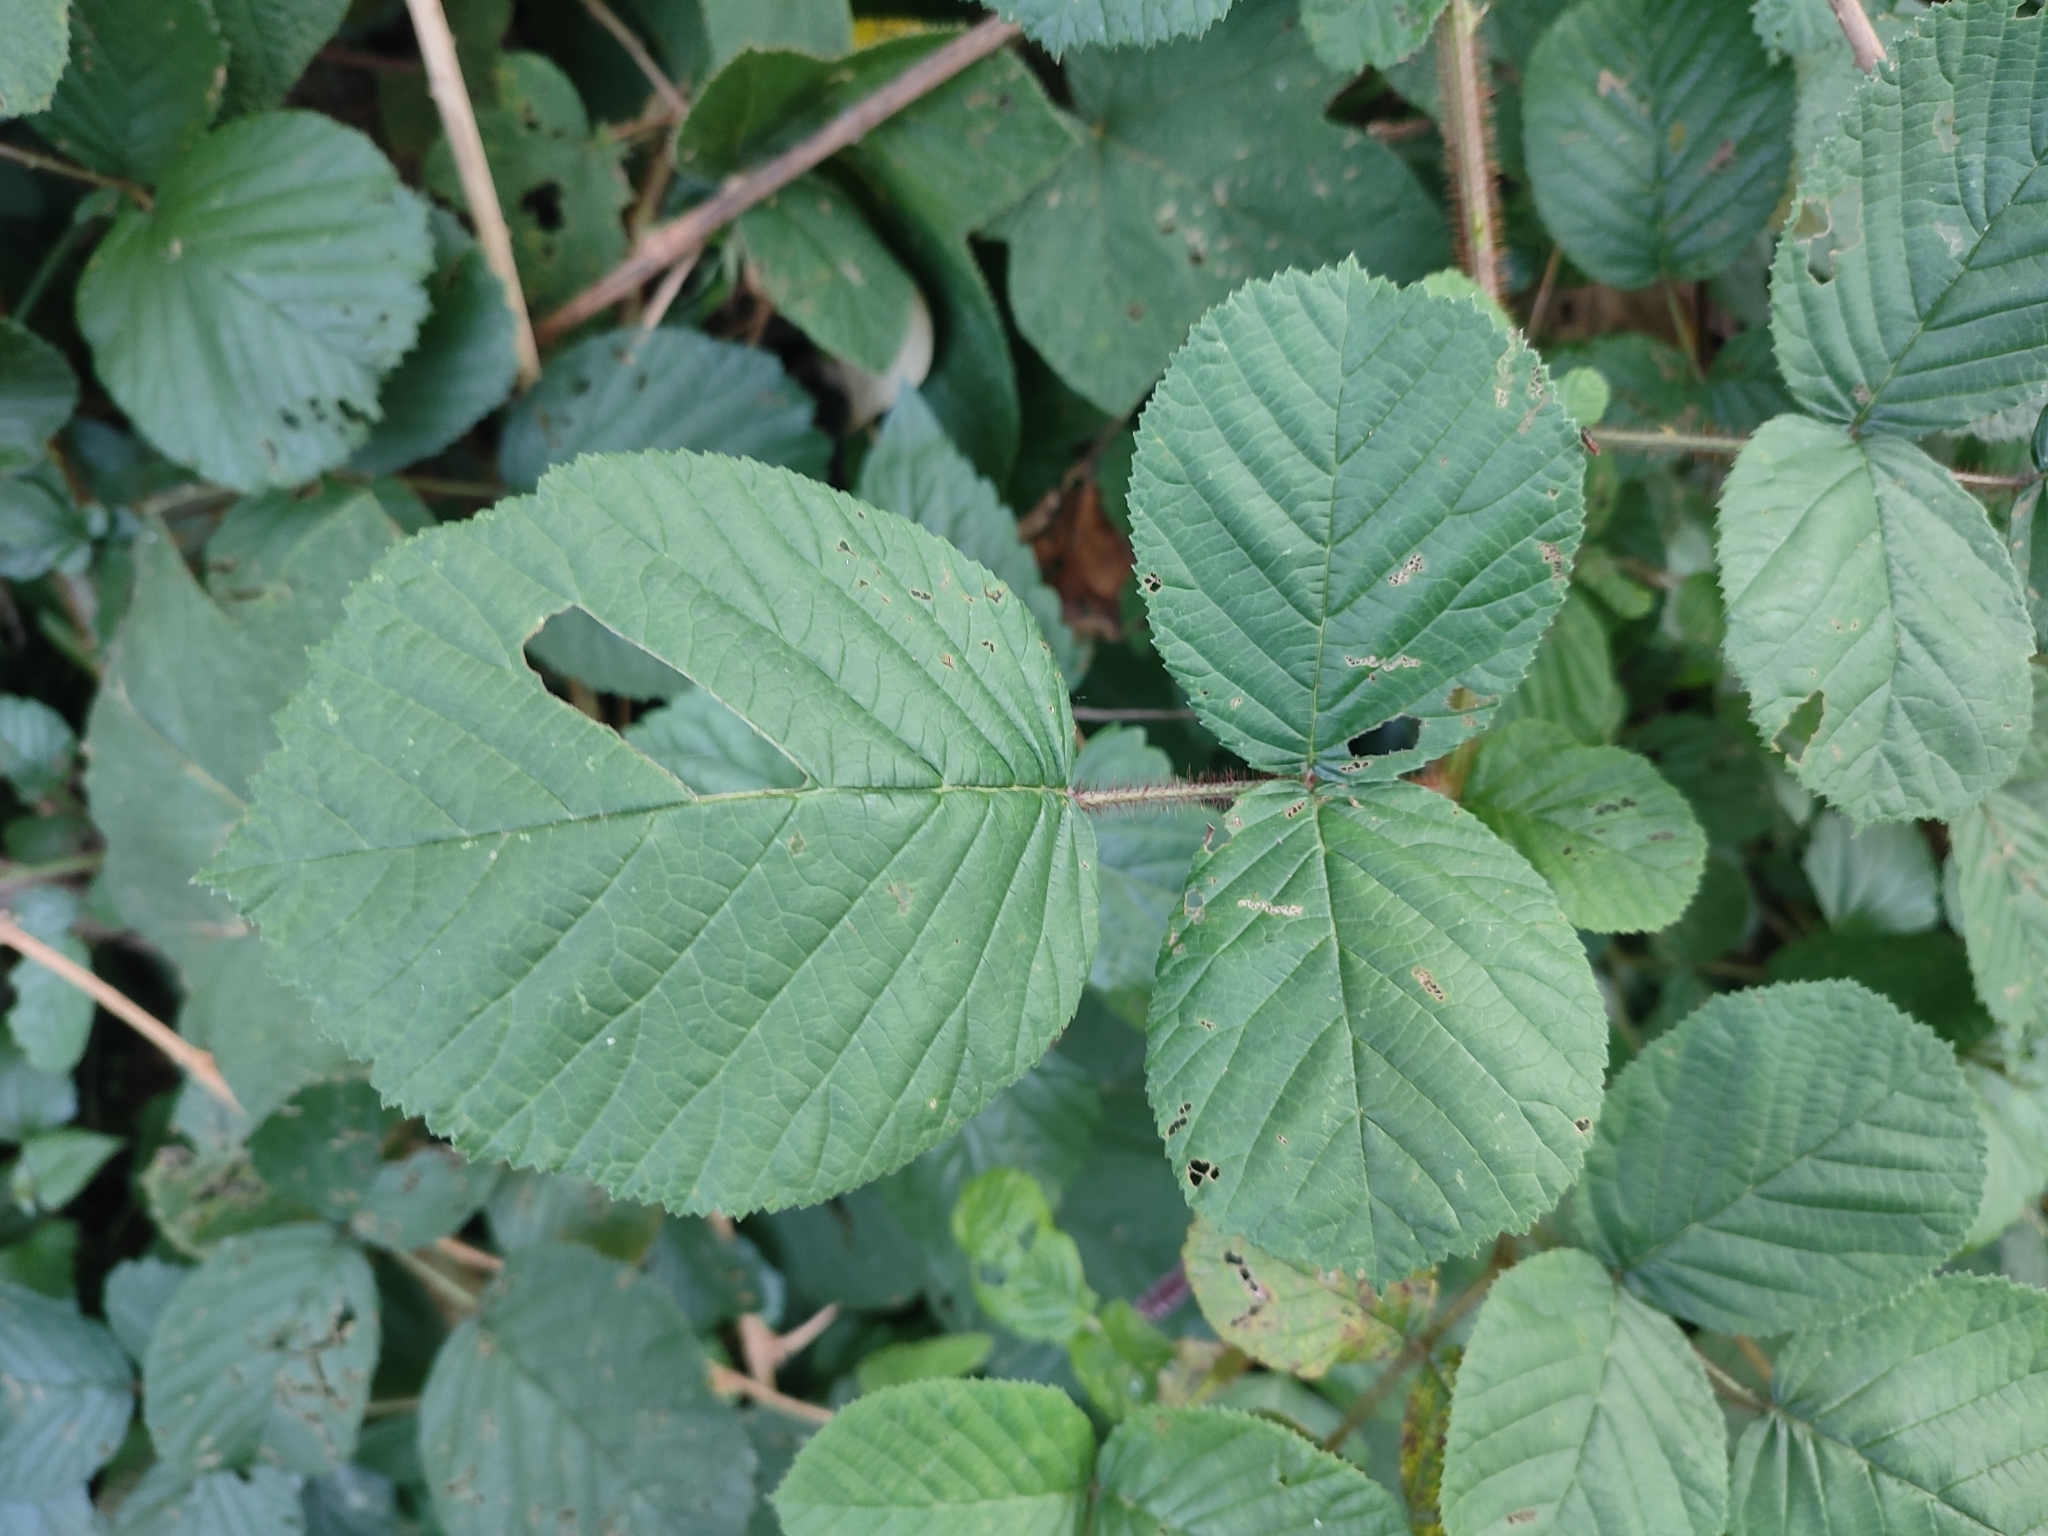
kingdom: Plantae
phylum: Tracheophyta
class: Magnoliopsida
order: Rosales
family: Rosaceae
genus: Rubus
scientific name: Rubus ellipticus
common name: Cheeseberry
